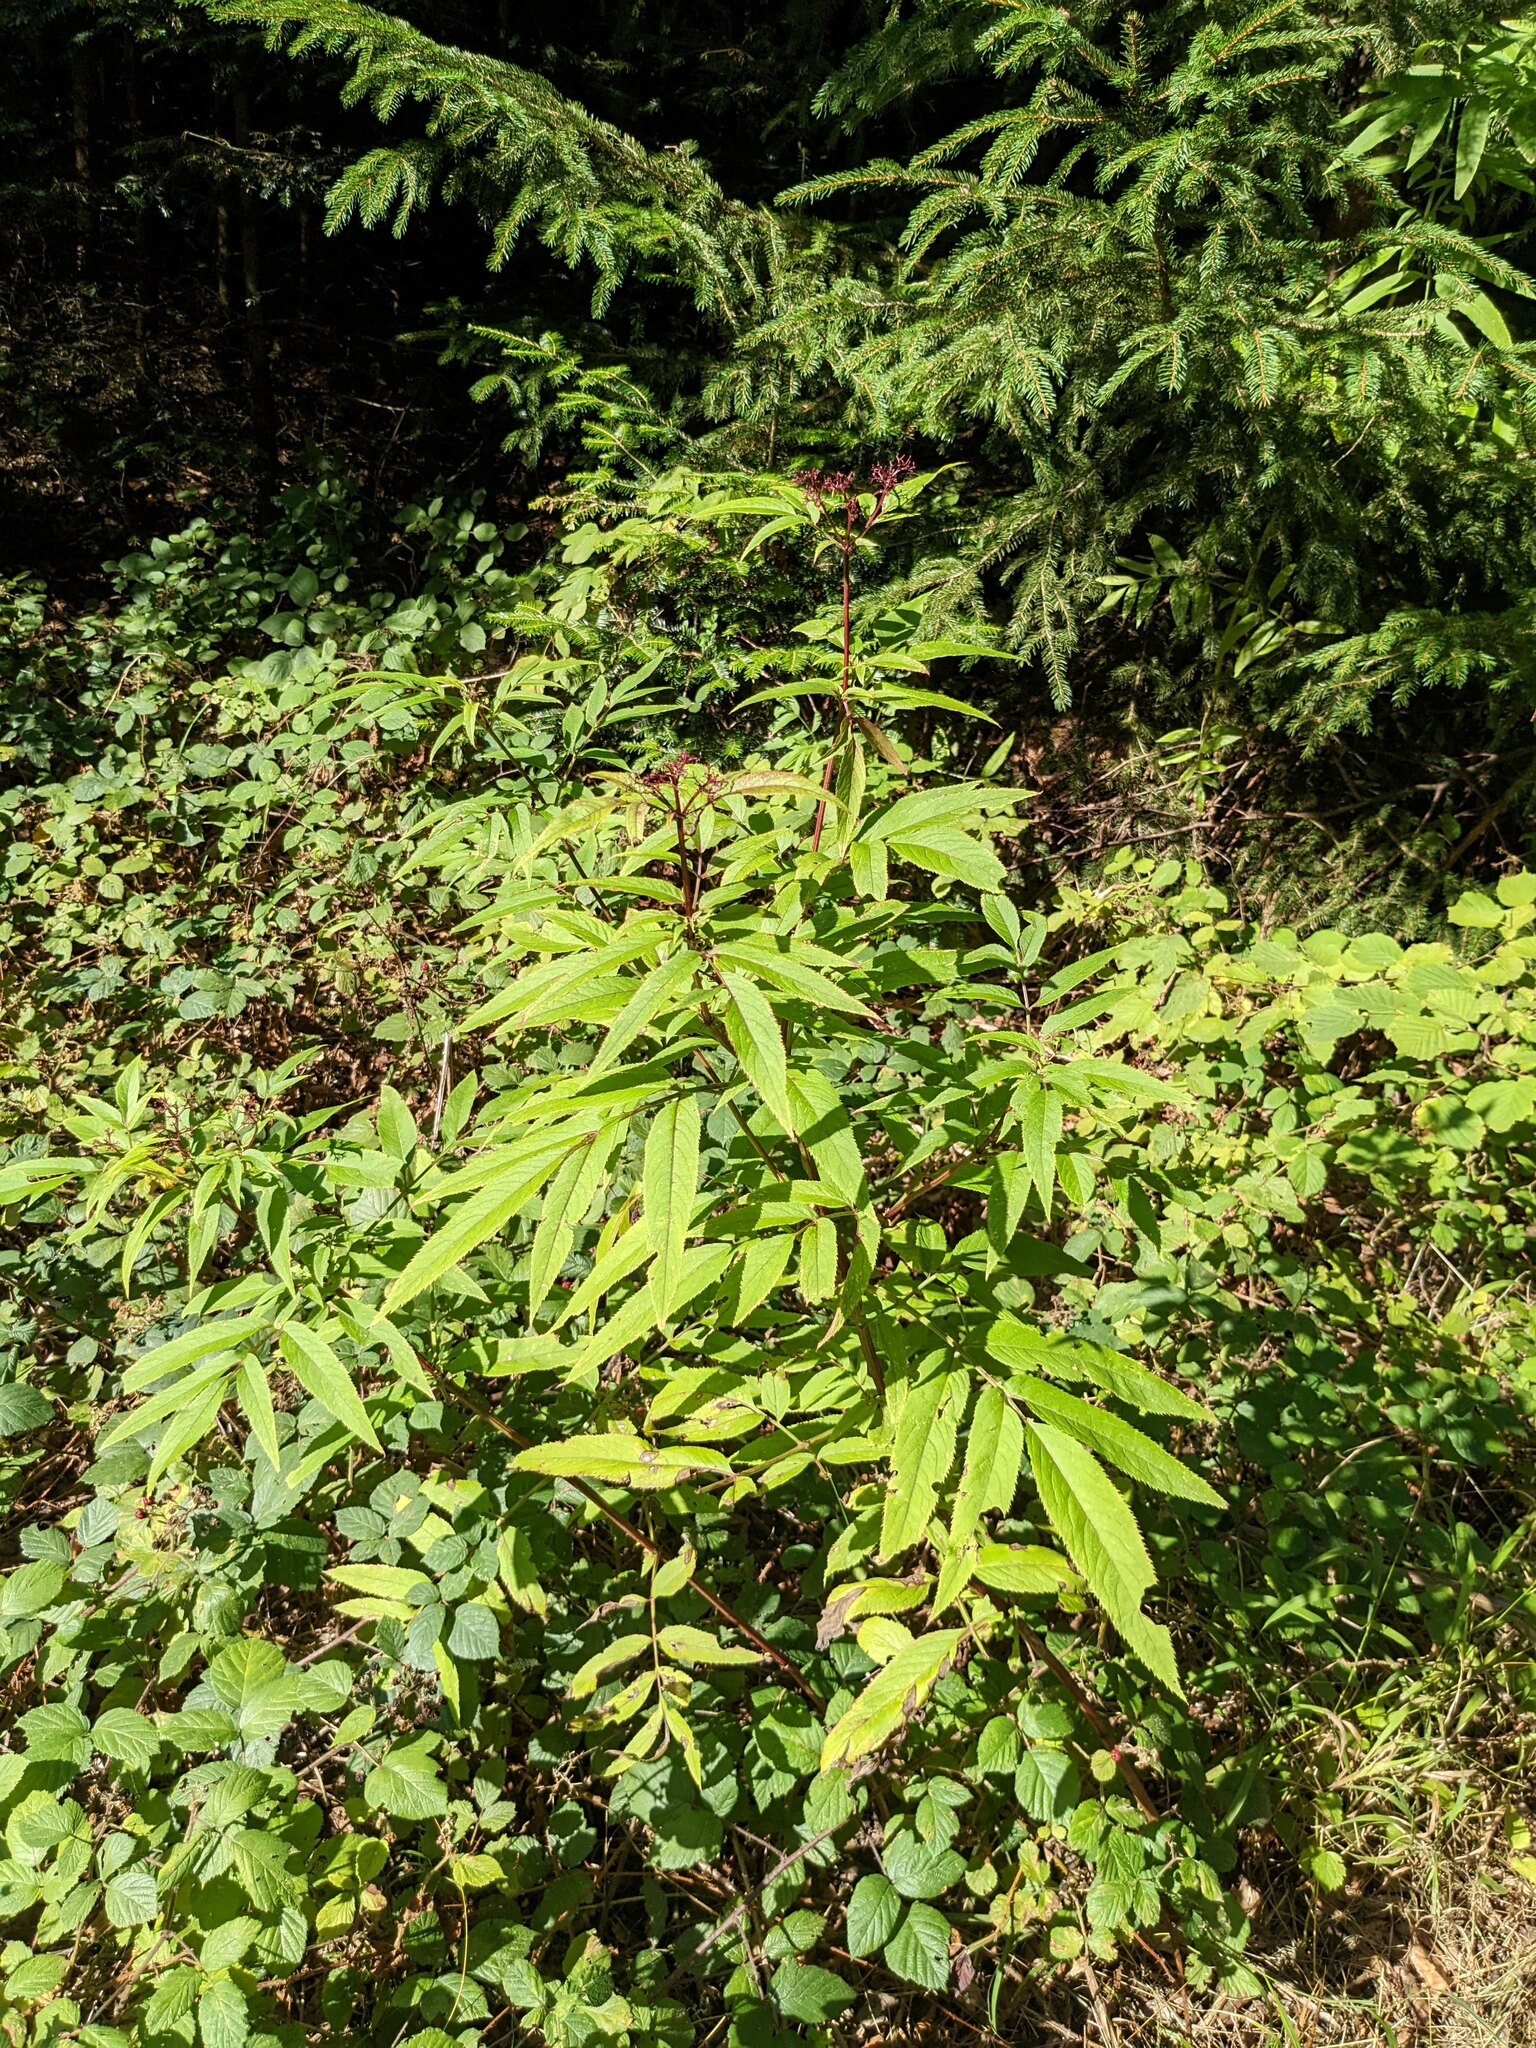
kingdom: Plantae
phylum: Tracheophyta
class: Magnoliopsida
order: Dipsacales
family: Viburnaceae
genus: Sambucus
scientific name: Sambucus ebulus
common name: Dwarf elder
